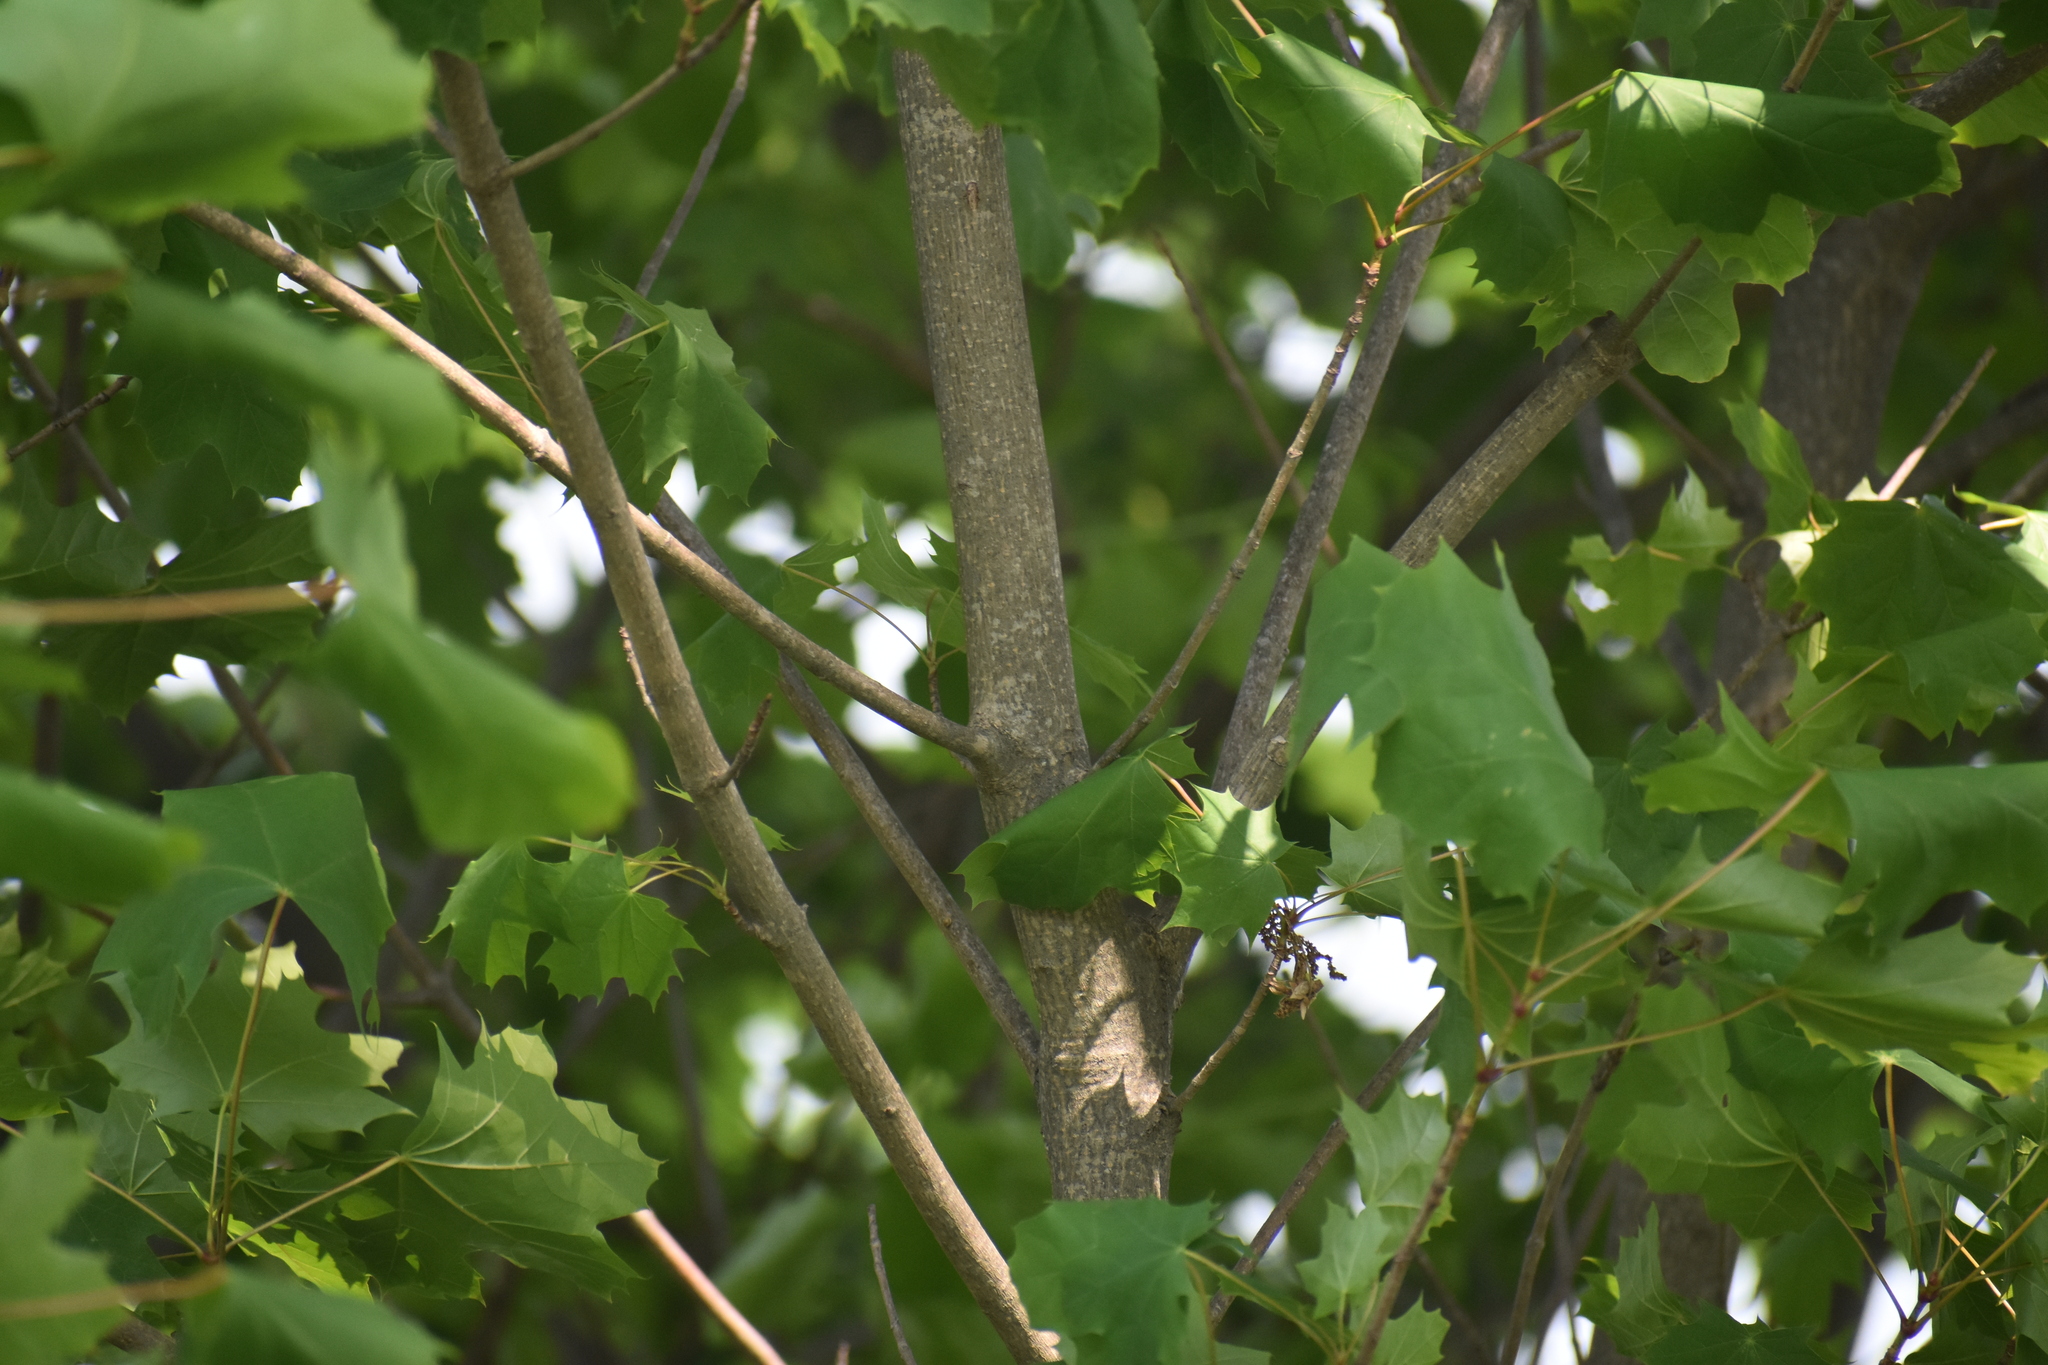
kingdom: Plantae
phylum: Tracheophyta
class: Magnoliopsida
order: Sapindales
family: Sapindaceae
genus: Acer
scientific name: Acer platanoides
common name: Norway maple
